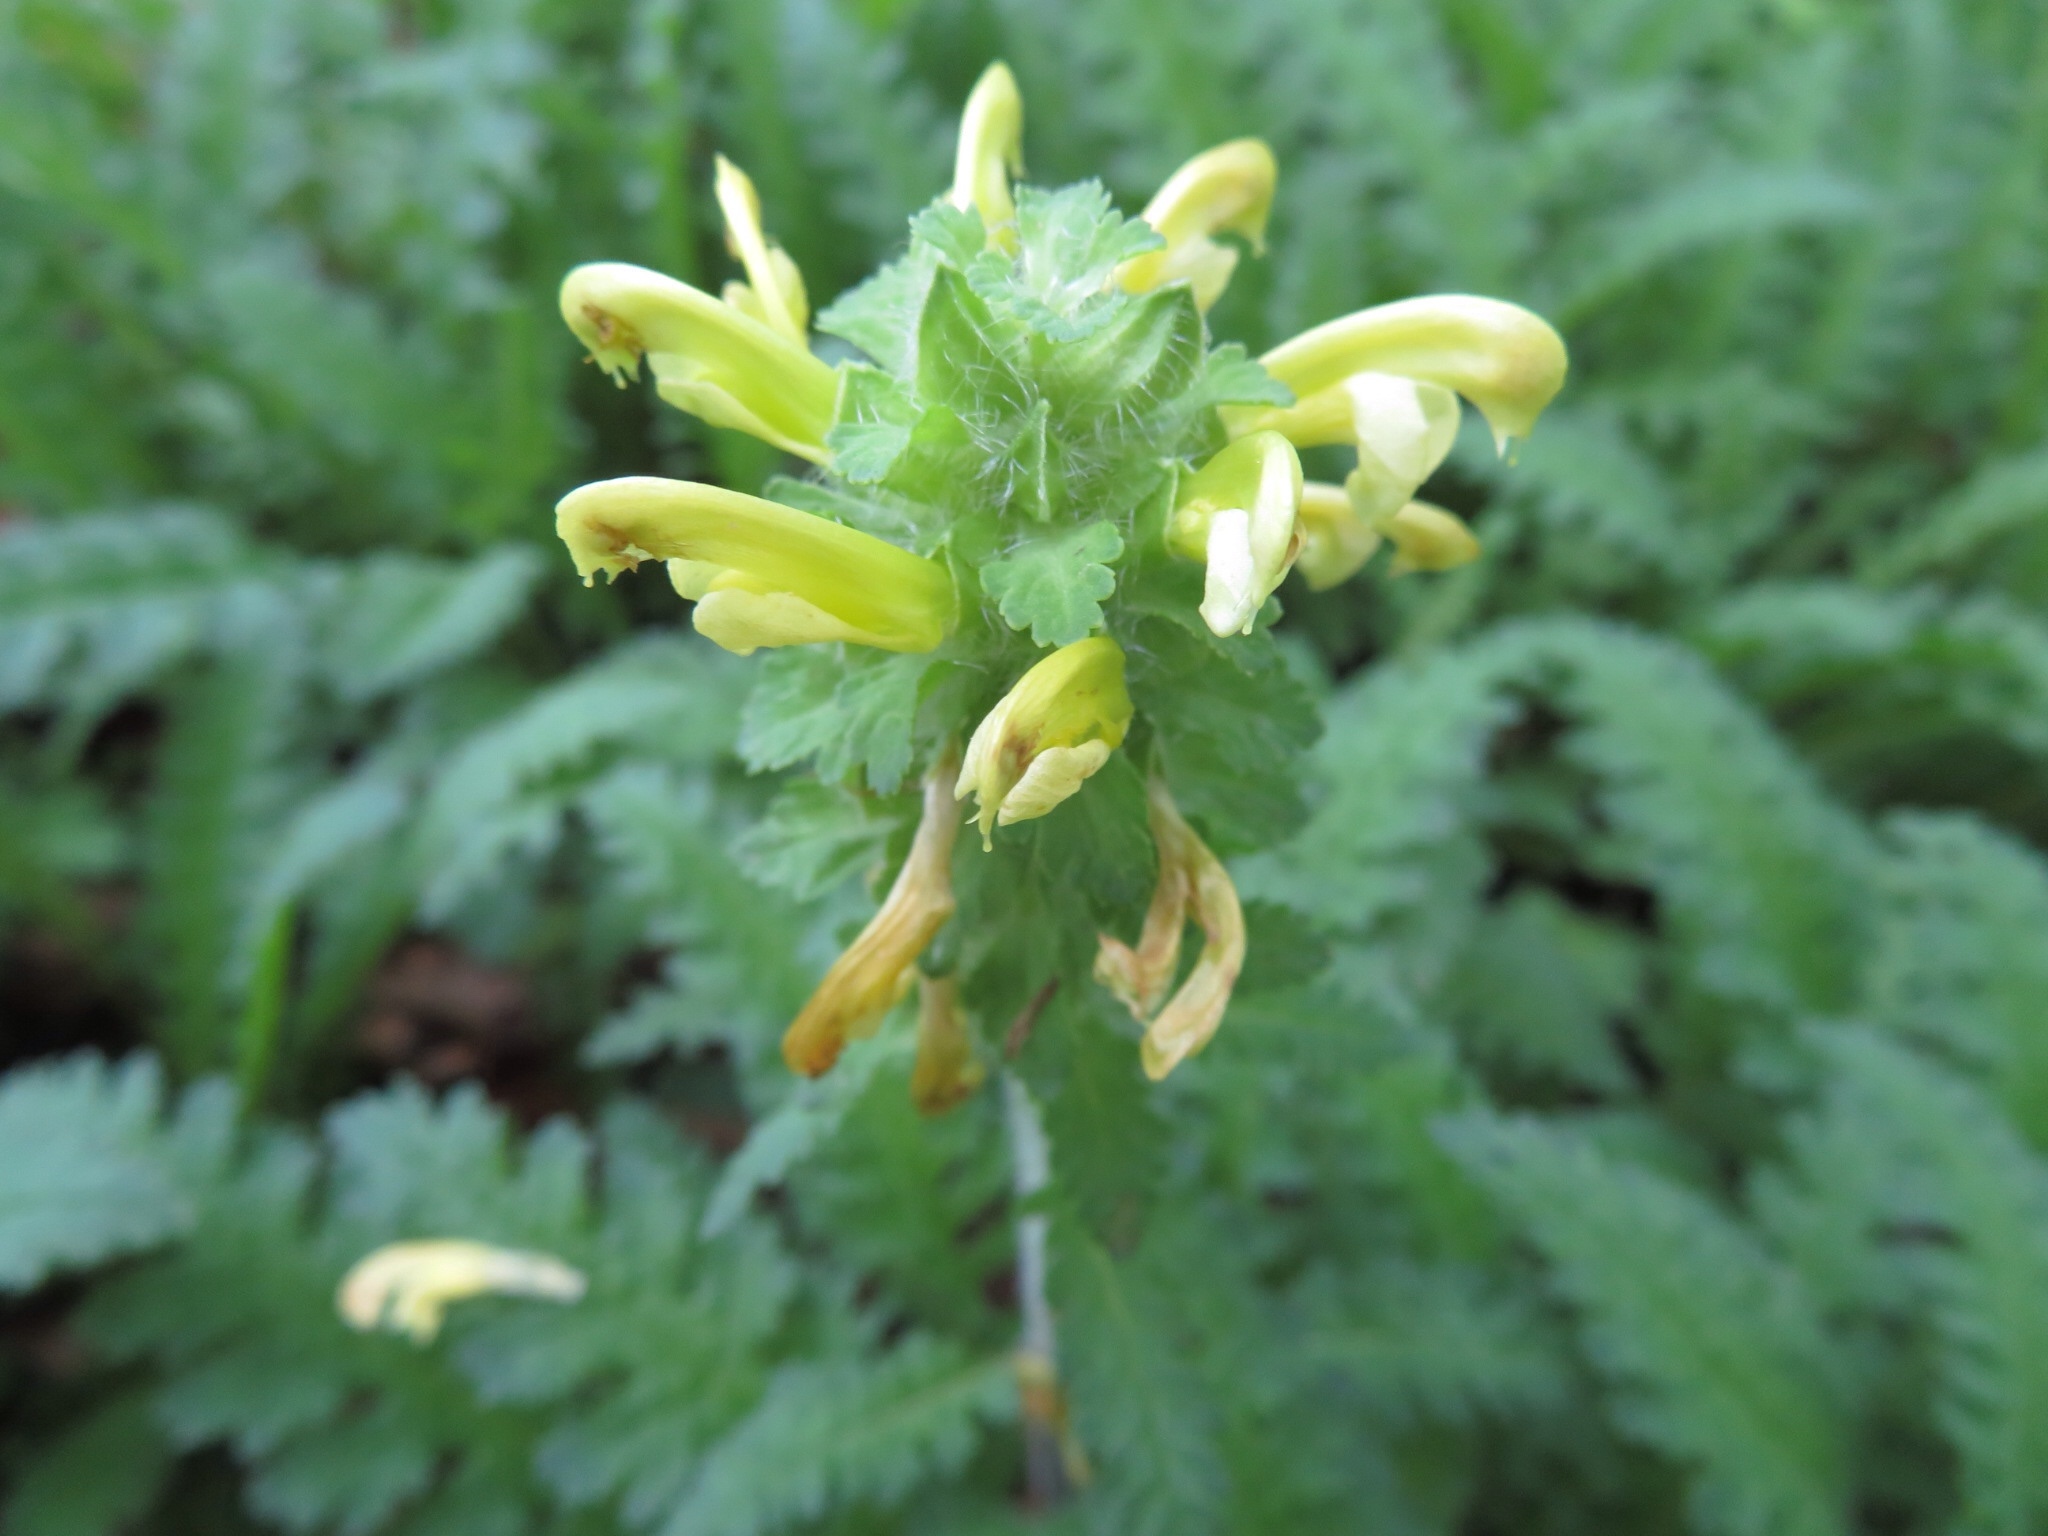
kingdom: Plantae
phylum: Tracheophyta
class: Magnoliopsida
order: Lamiales
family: Orobanchaceae
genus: Pedicularis
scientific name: Pedicularis canadensis
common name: Early lousewort
